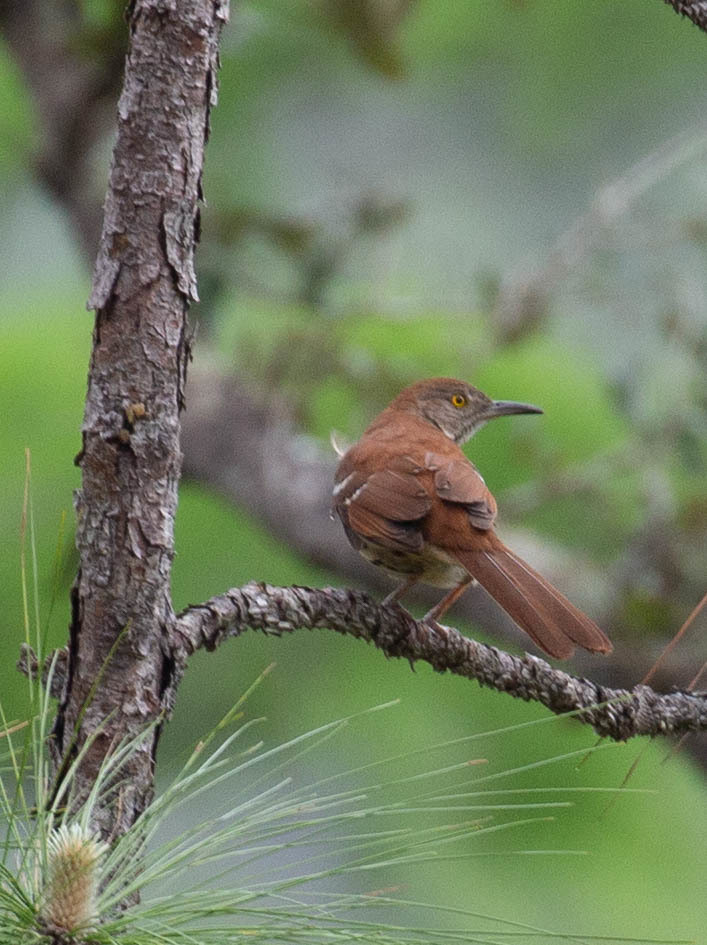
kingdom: Animalia
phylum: Chordata
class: Aves
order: Passeriformes
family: Mimidae
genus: Toxostoma
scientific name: Toxostoma rufum
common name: Brown thrasher
